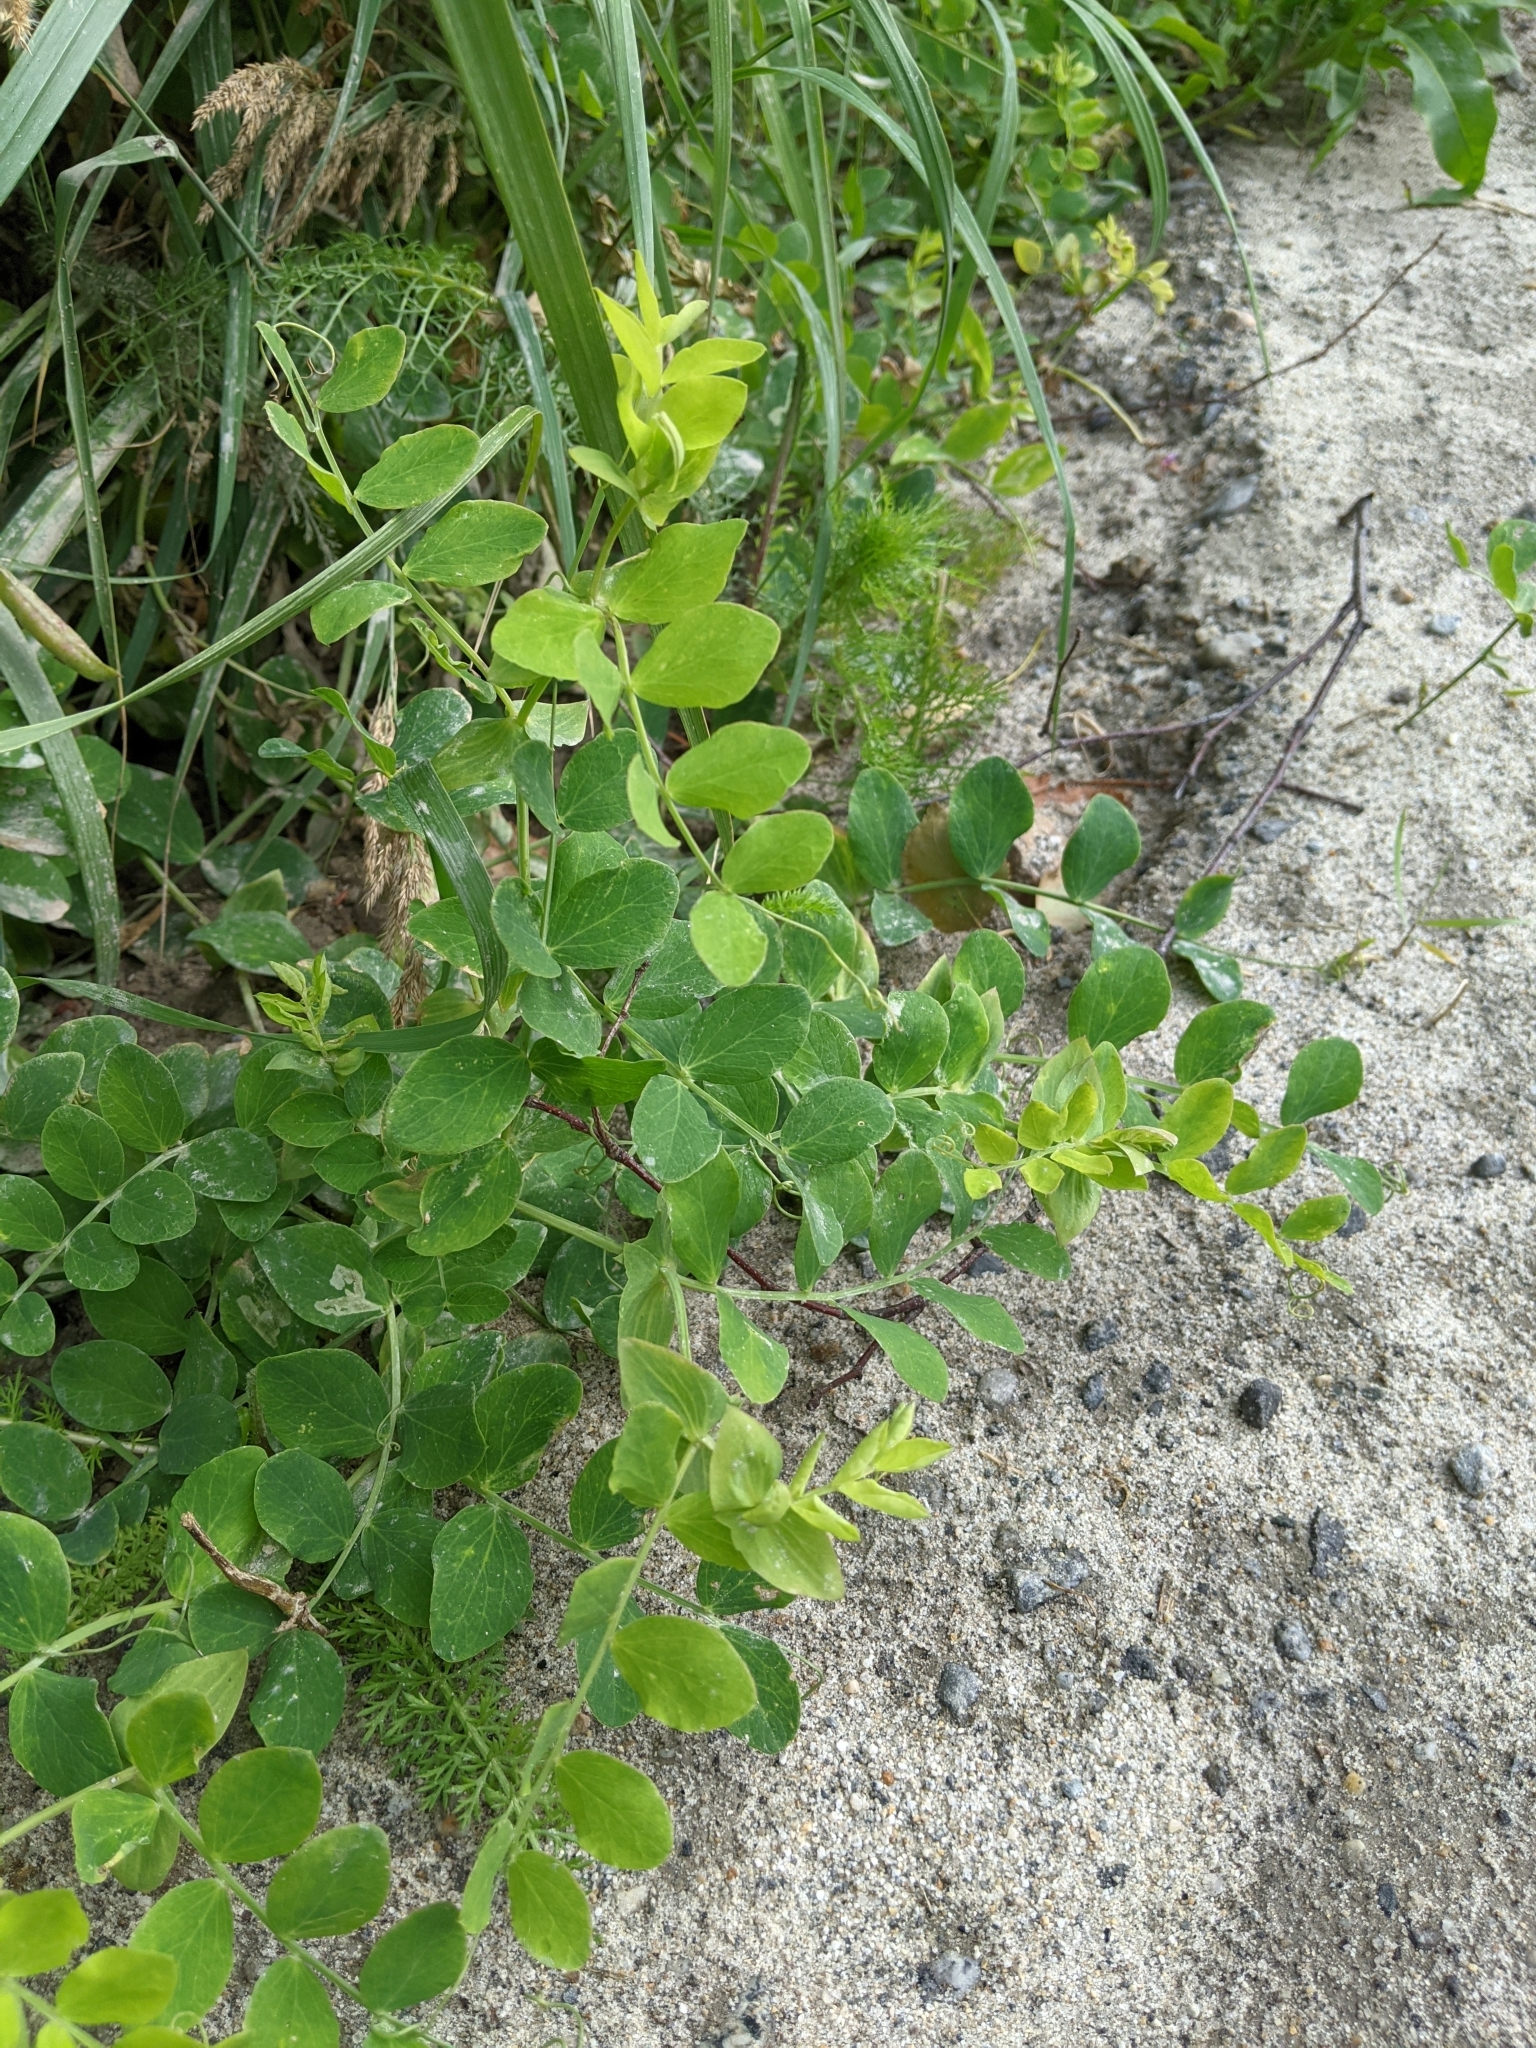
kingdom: Plantae
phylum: Tracheophyta
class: Magnoliopsida
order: Fabales
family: Fabaceae
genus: Lathyrus
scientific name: Lathyrus japonicus
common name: Sea pea
